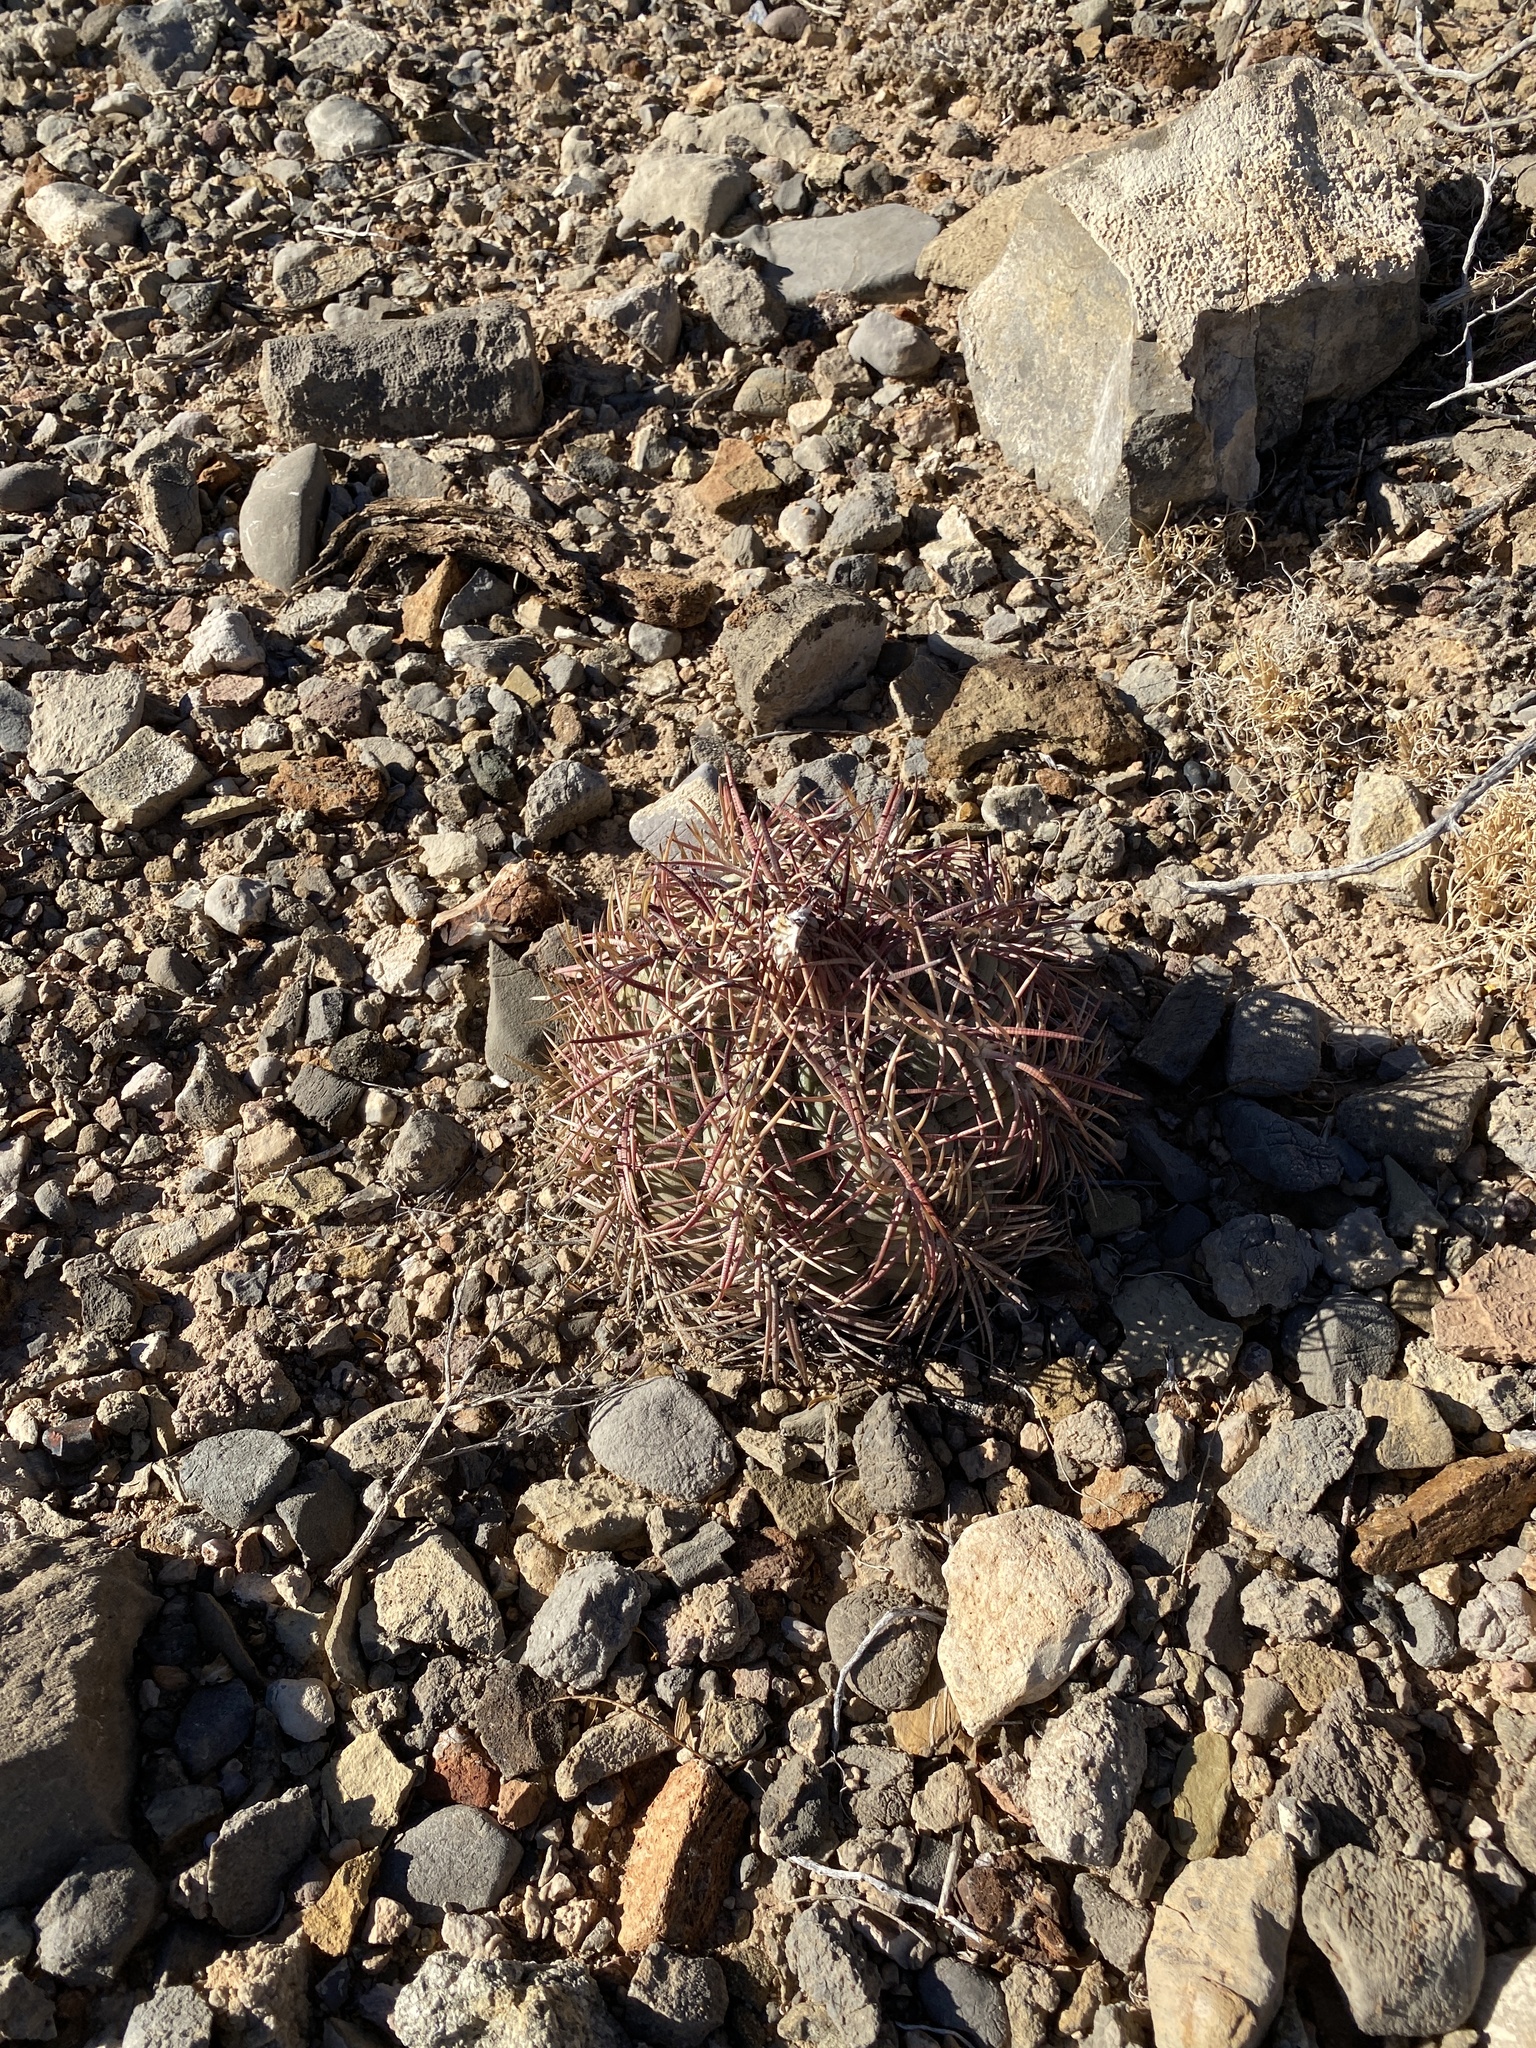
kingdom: Plantae
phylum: Tracheophyta
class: Magnoliopsida
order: Caryophyllales
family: Cactaceae
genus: Echinocactus
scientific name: Echinocactus horizonthalonius
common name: Devilshead
